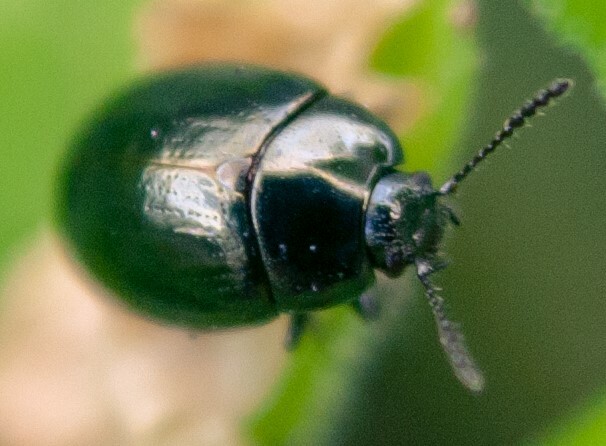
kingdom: Animalia
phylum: Arthropoda
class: Insecta
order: Coleoptera
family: Chrysomelidae
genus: Phaedon
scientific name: Phaedon tumidulus
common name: Celery leaf beetle
